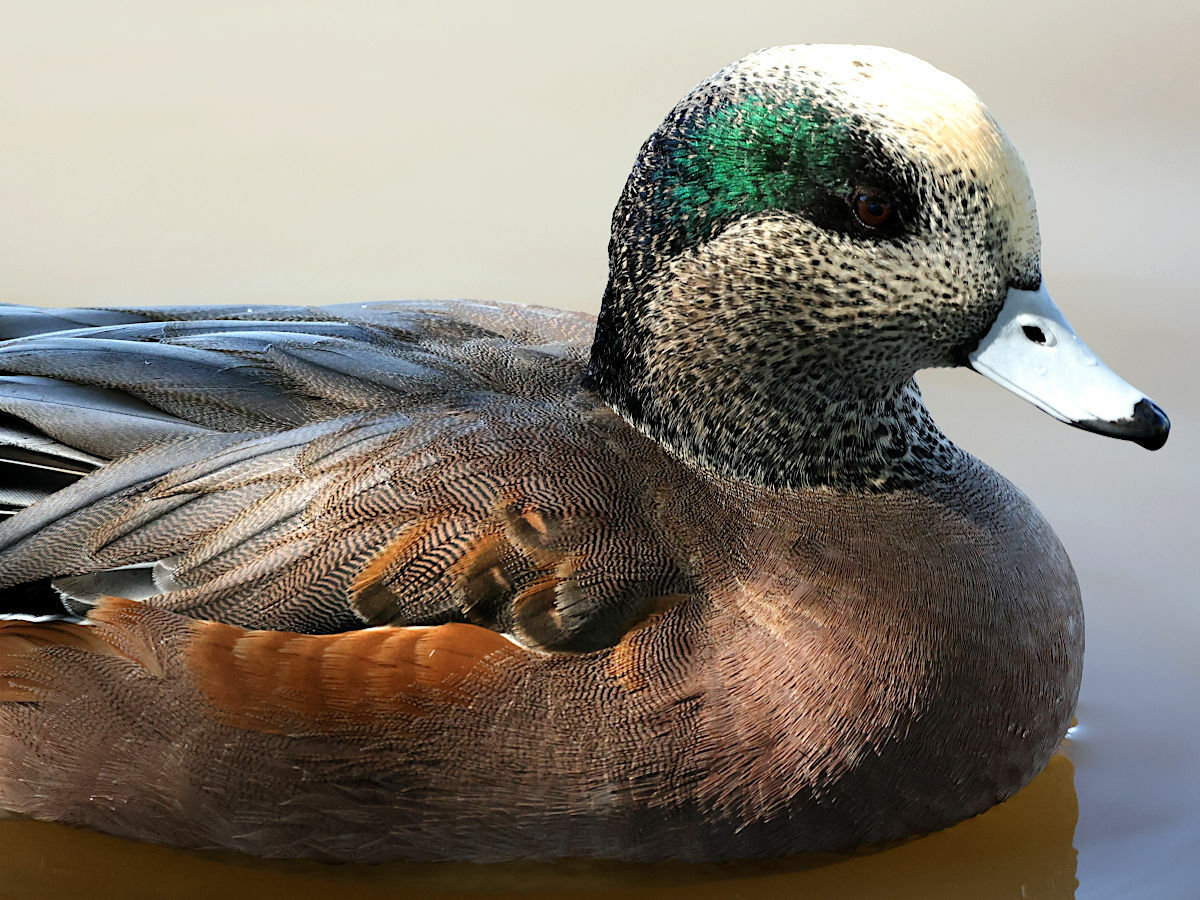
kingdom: Animalia
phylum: Chordata
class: Aves
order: Anseriformes
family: Anatidae
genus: Mareca
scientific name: Mareca americana
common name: American wigeon
